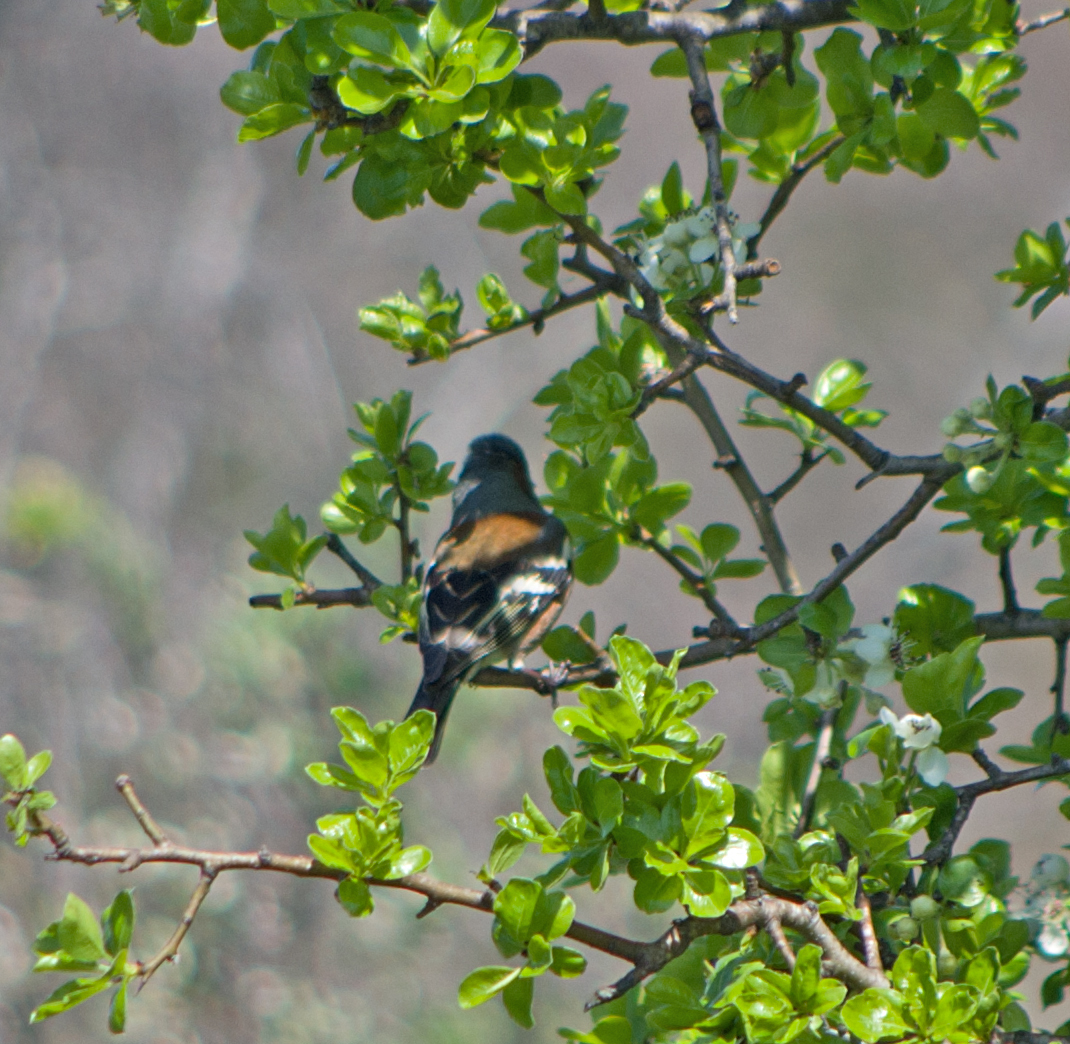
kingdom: Animalia
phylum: Chordata
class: Aves
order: Passeriformes
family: Fringillidae
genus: Fringilla
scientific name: Fringilla coelebs
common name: Common chaffinch
